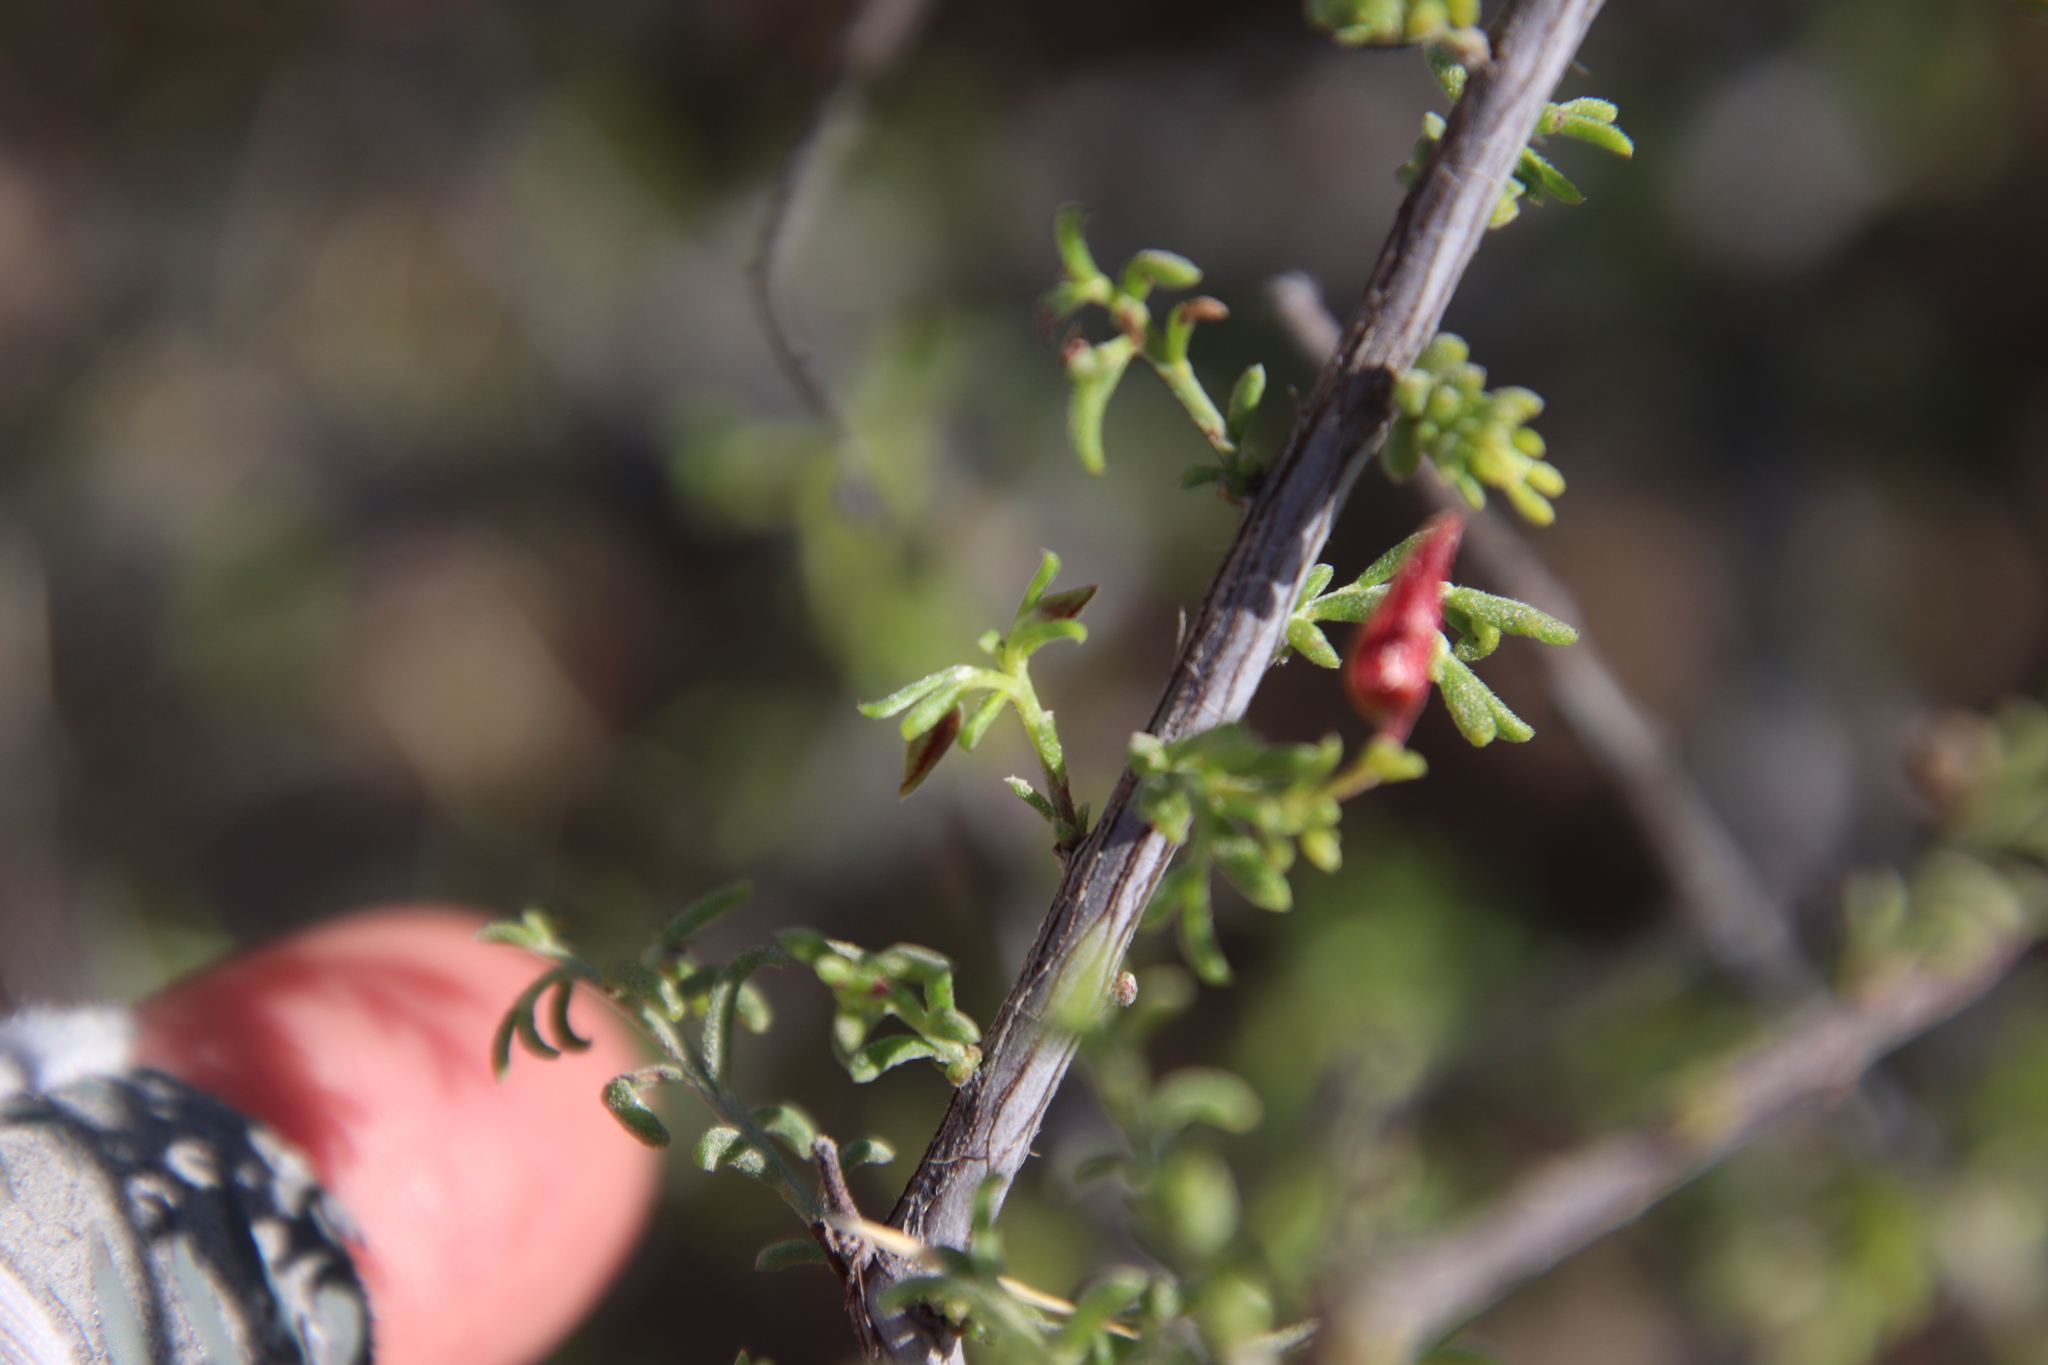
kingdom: Plantae
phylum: Tracheophyta
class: Magnoliopsida
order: Zygophyllales
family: Krameriaceae
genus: Krameria
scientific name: Krameria erecta
